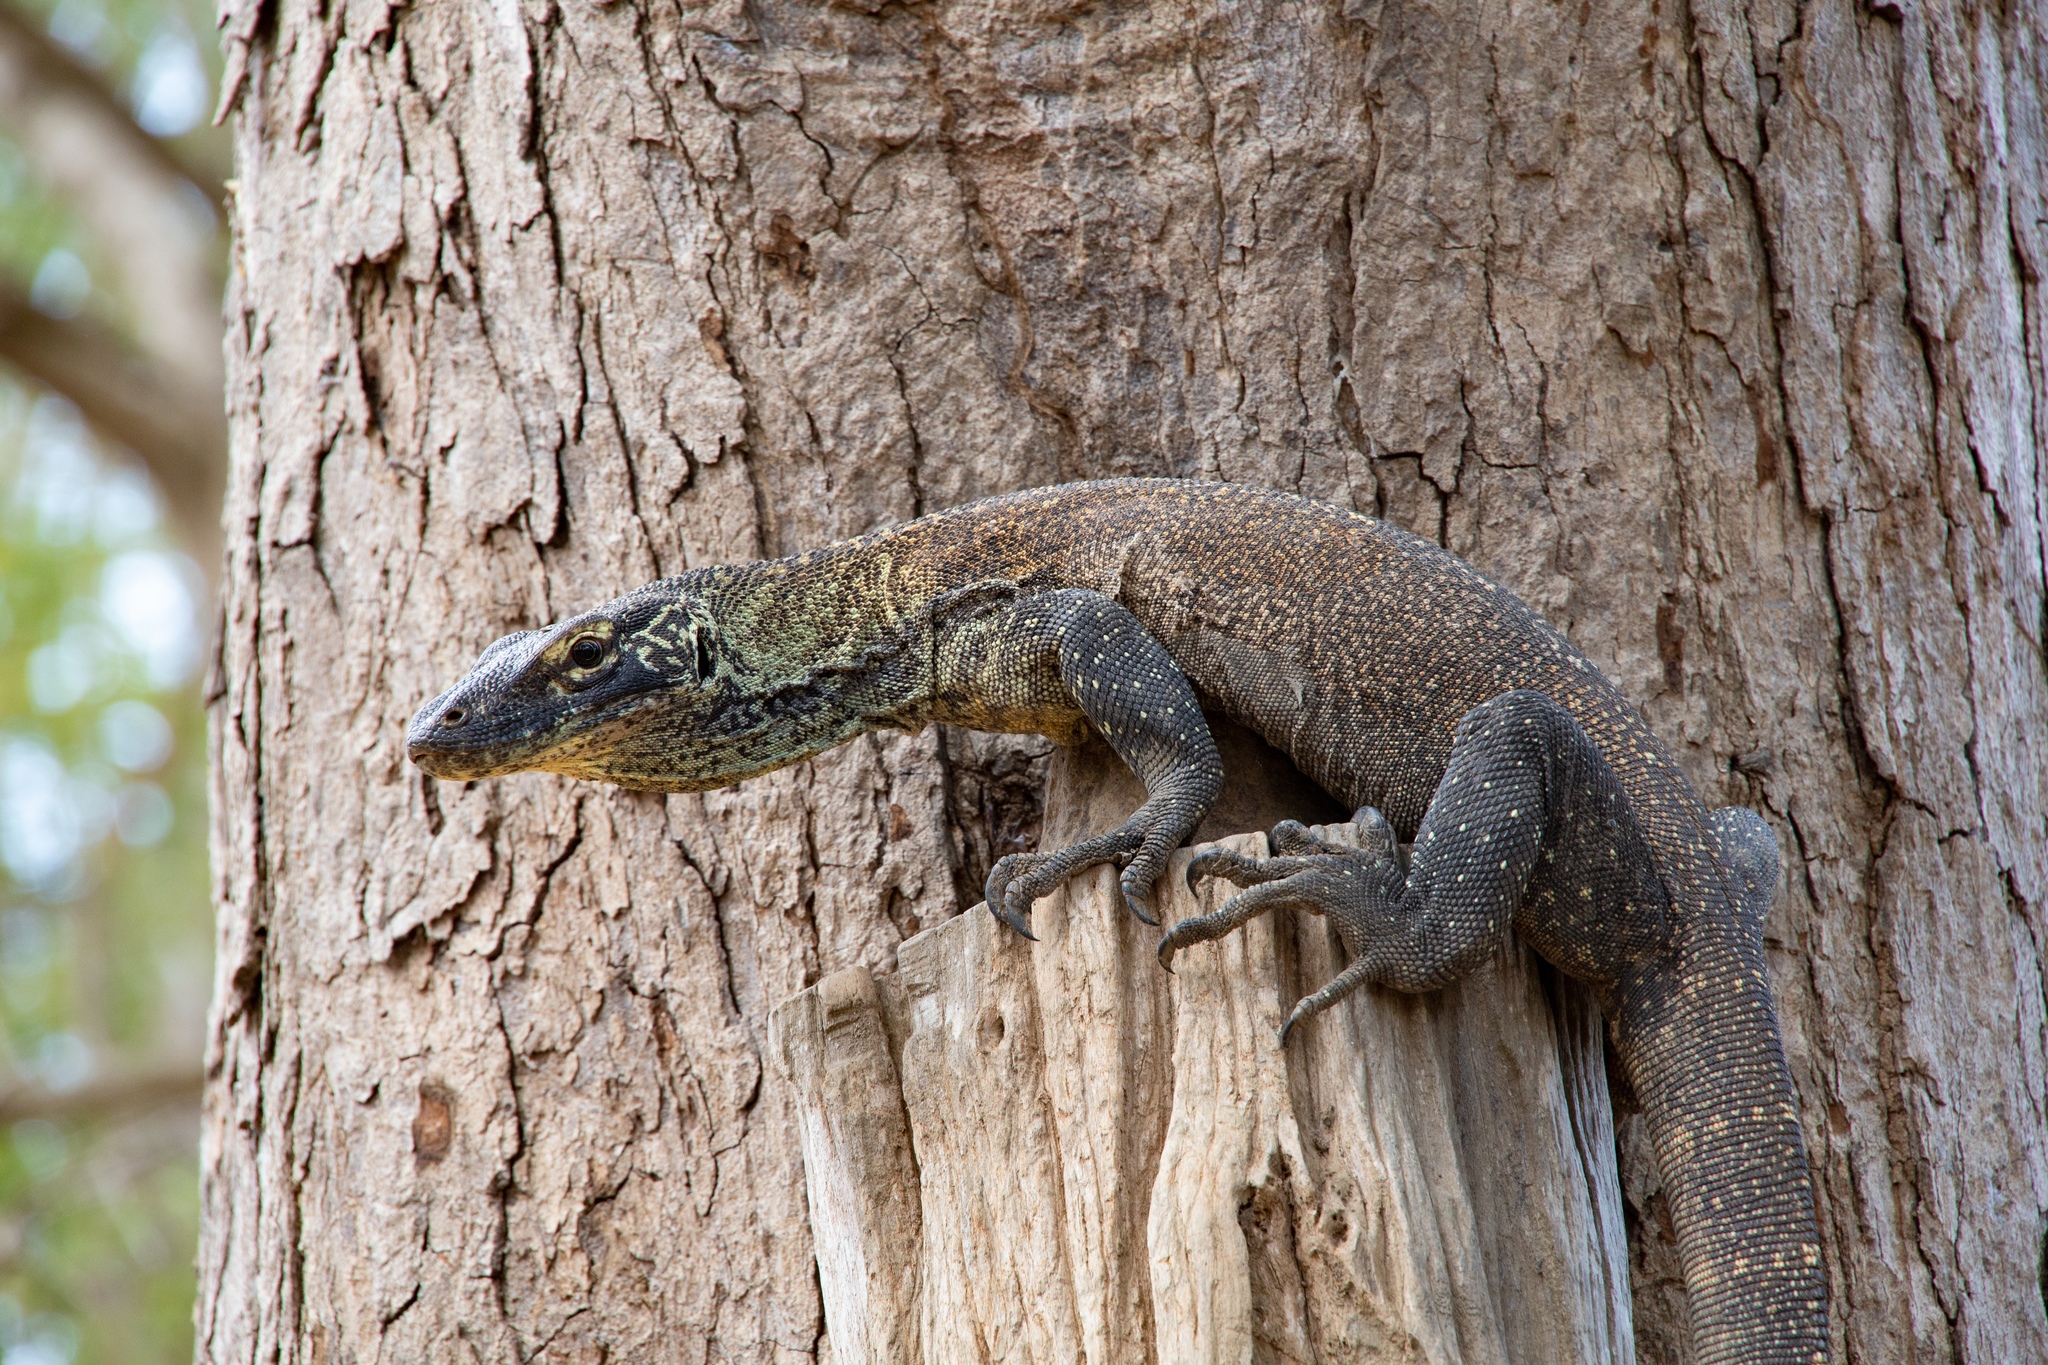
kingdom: Animalia
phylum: Chordata
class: Squamata
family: Varanidae
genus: Varanus
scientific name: Varanus komodoensis
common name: Komodo dragon
